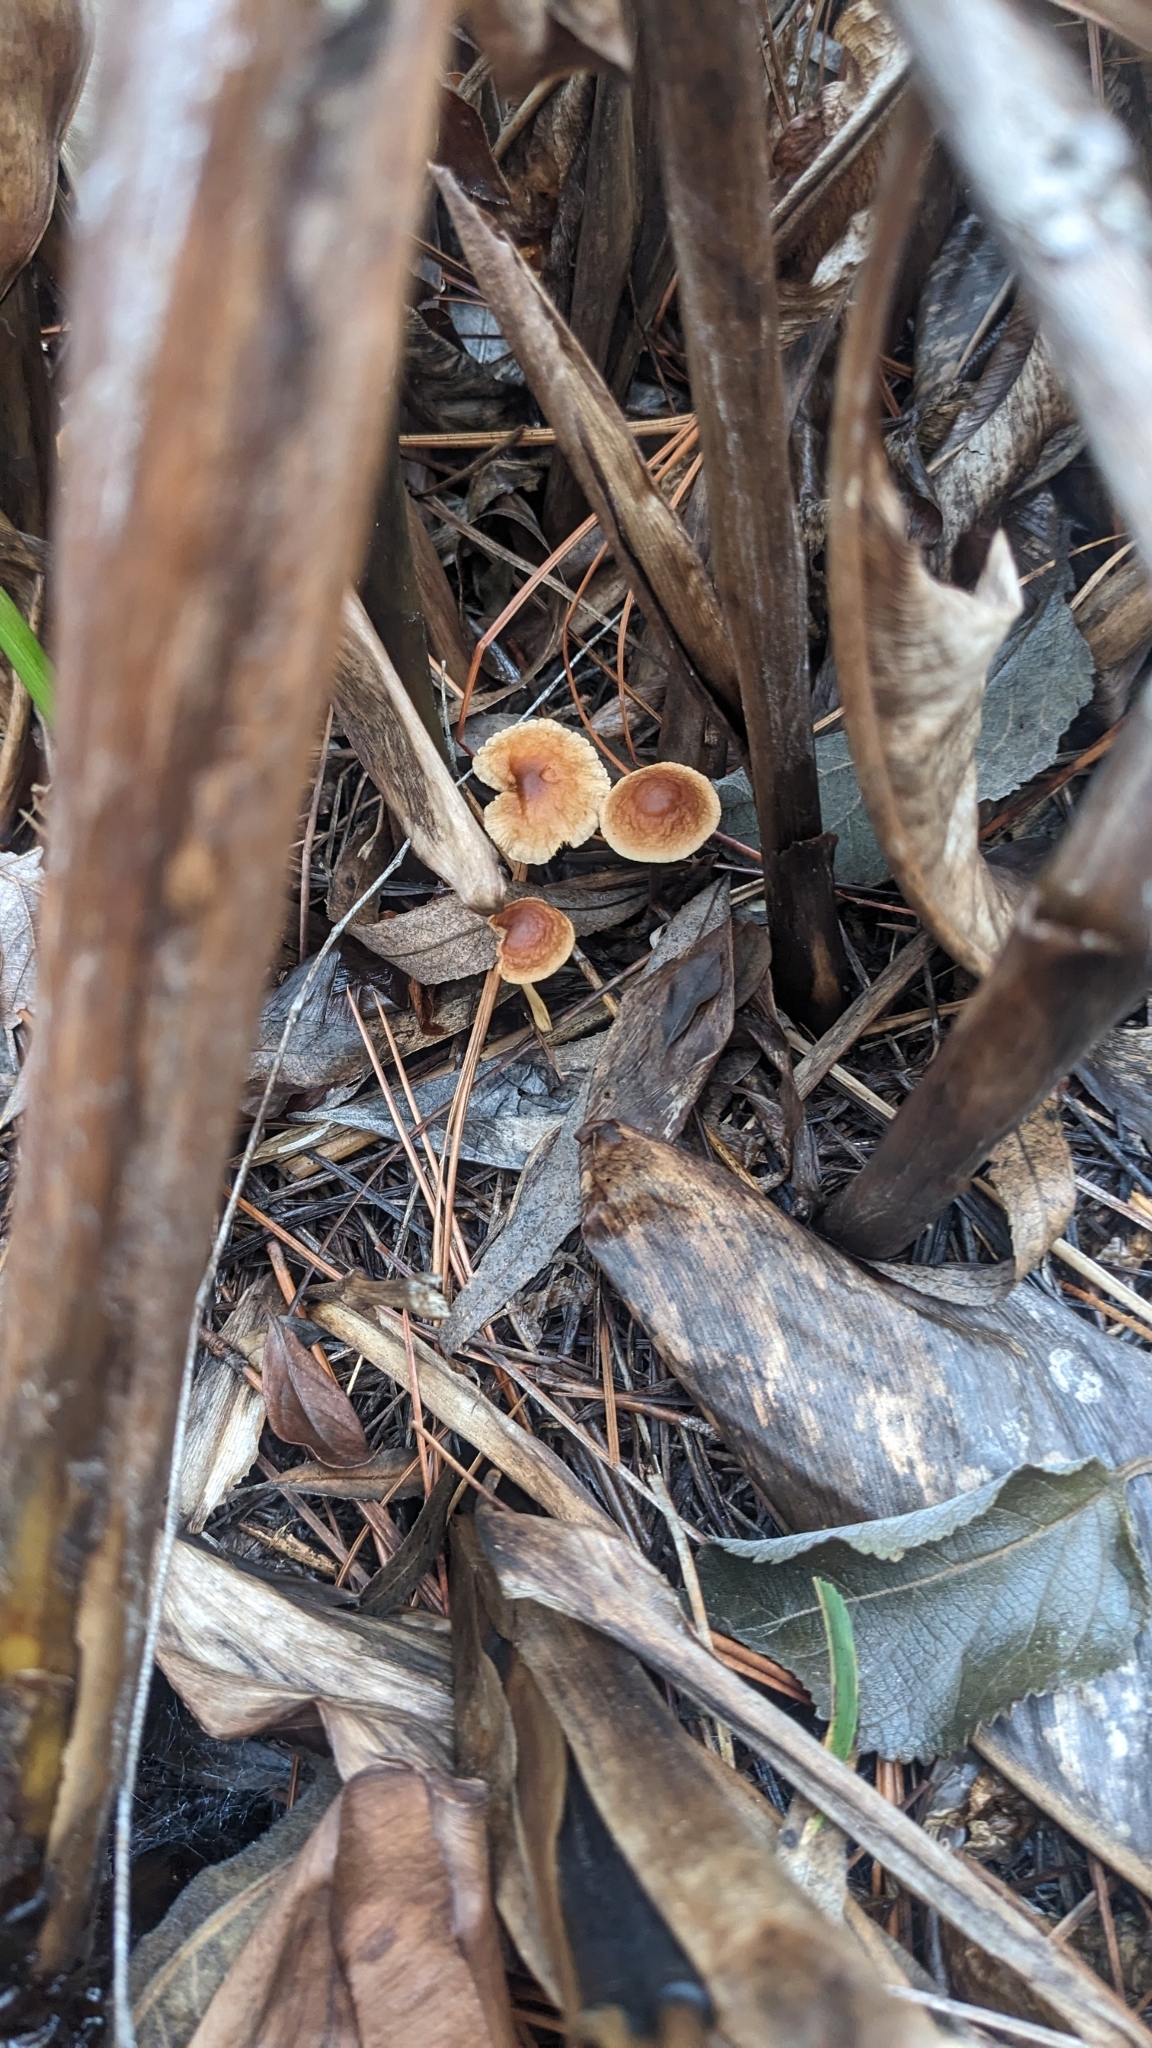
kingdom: Fungi
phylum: Basidiomycota
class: Agaricomycetes
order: Agaricales
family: Omphalotaceae
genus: Gymnopus
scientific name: Gymnopus spongiosus
